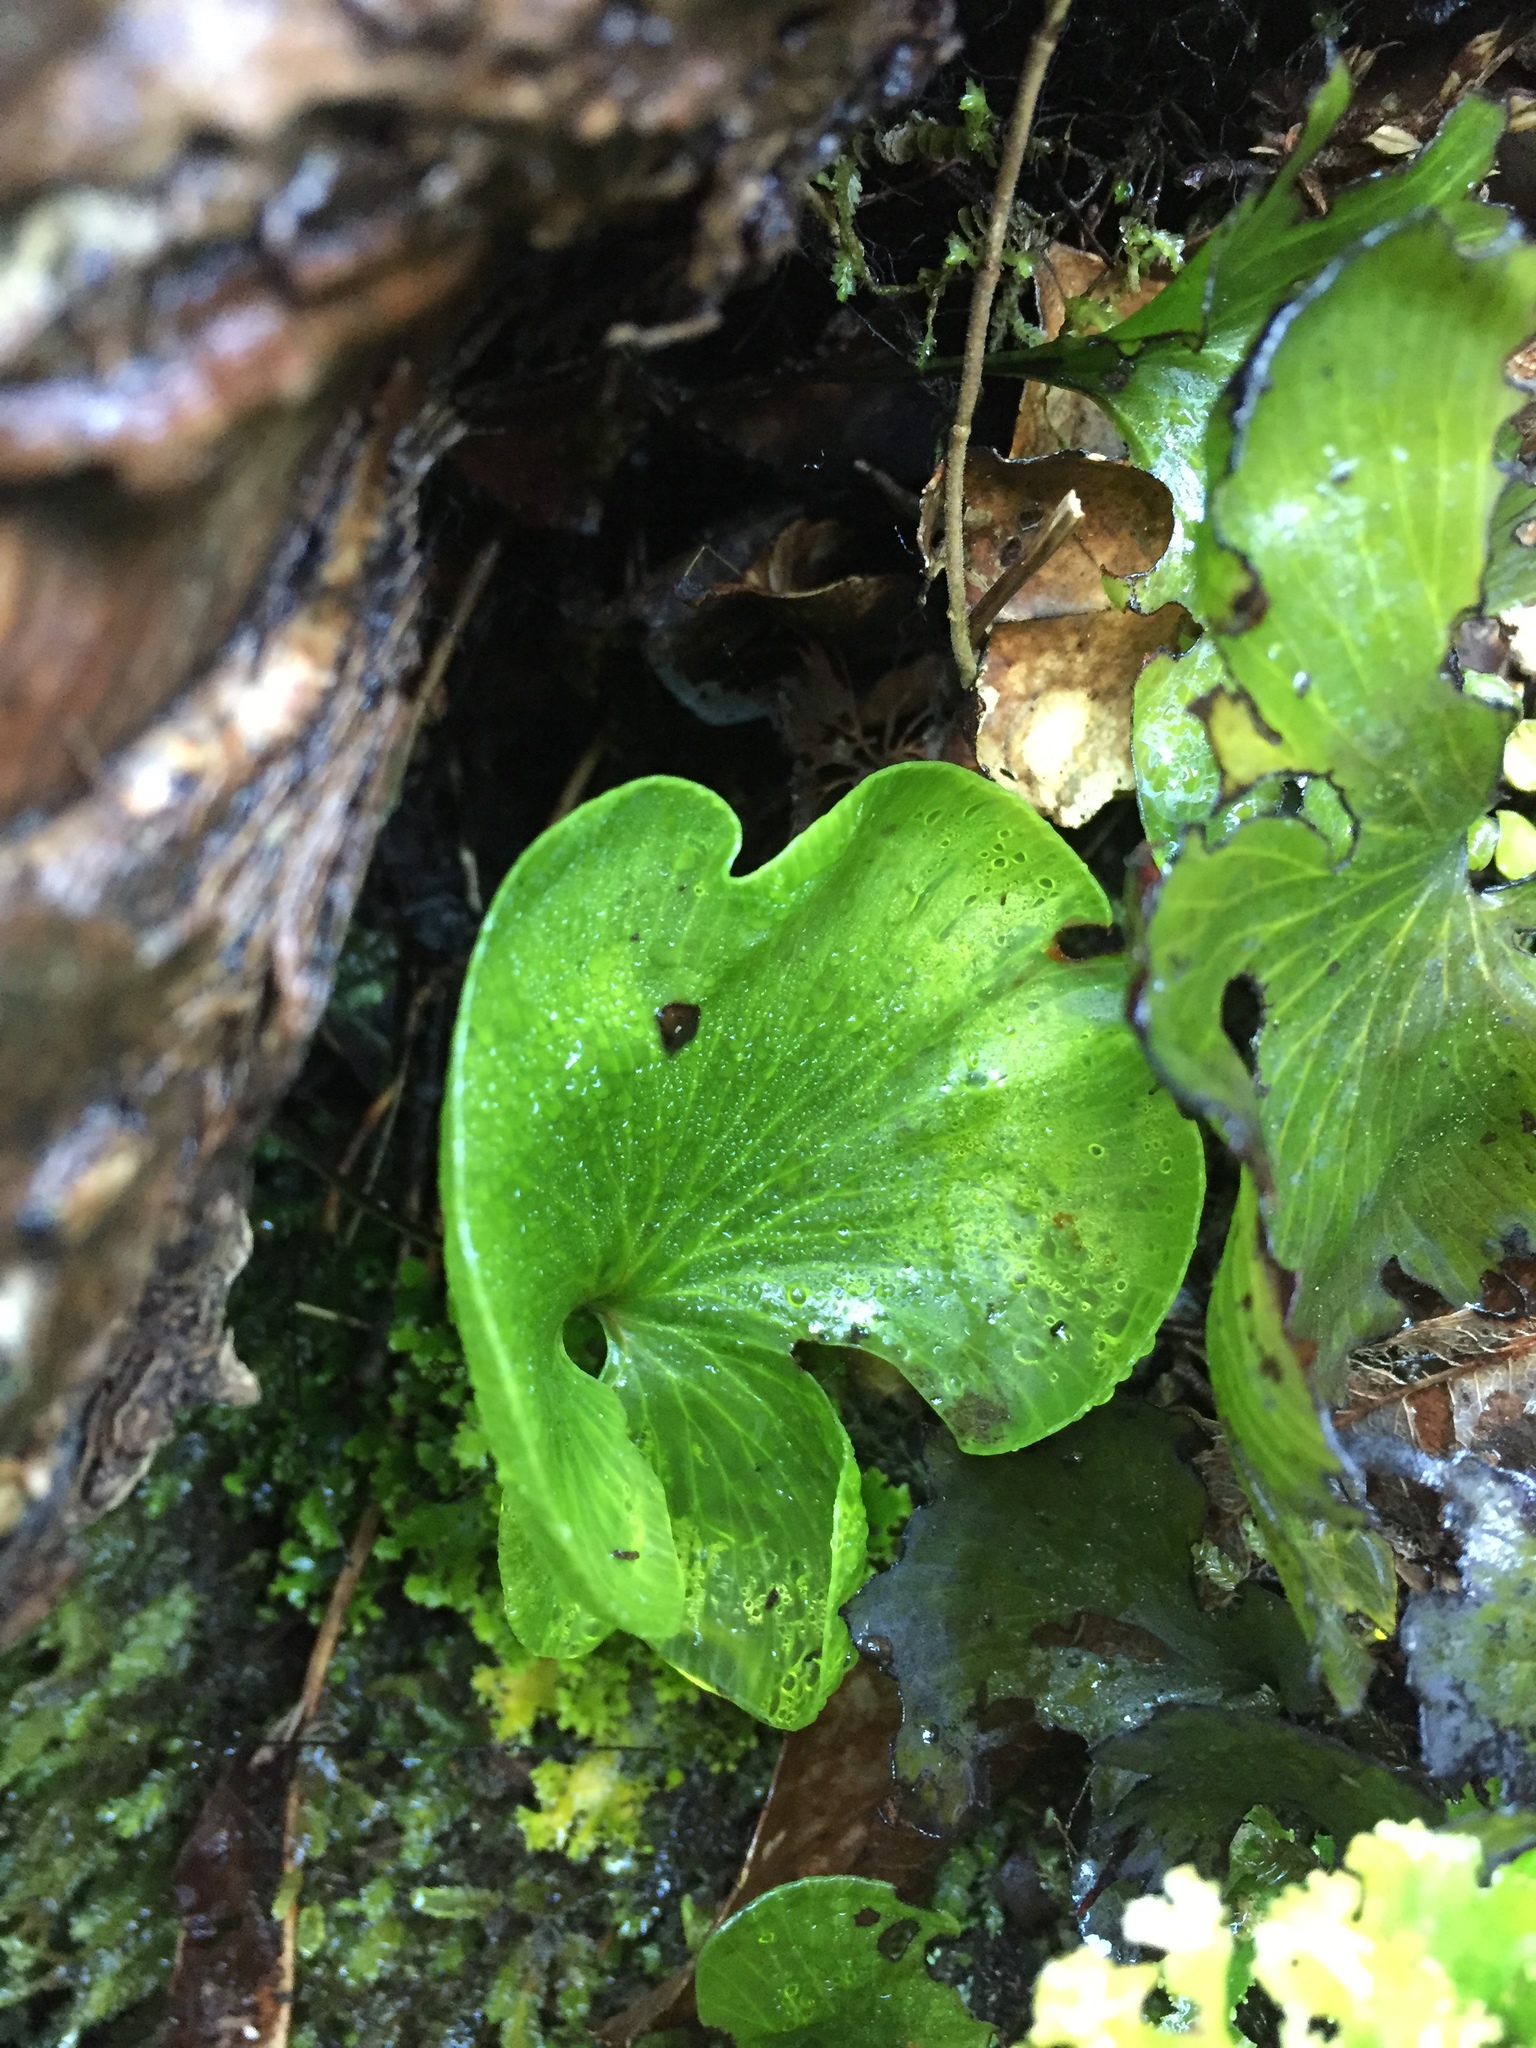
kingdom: Plantae
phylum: Tracheophyta
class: Polypodiopsida
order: Hymenophyllales
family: Hymenophyllaceae
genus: Hymenophyllum
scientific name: Hymenophyllum nephrophyllum
